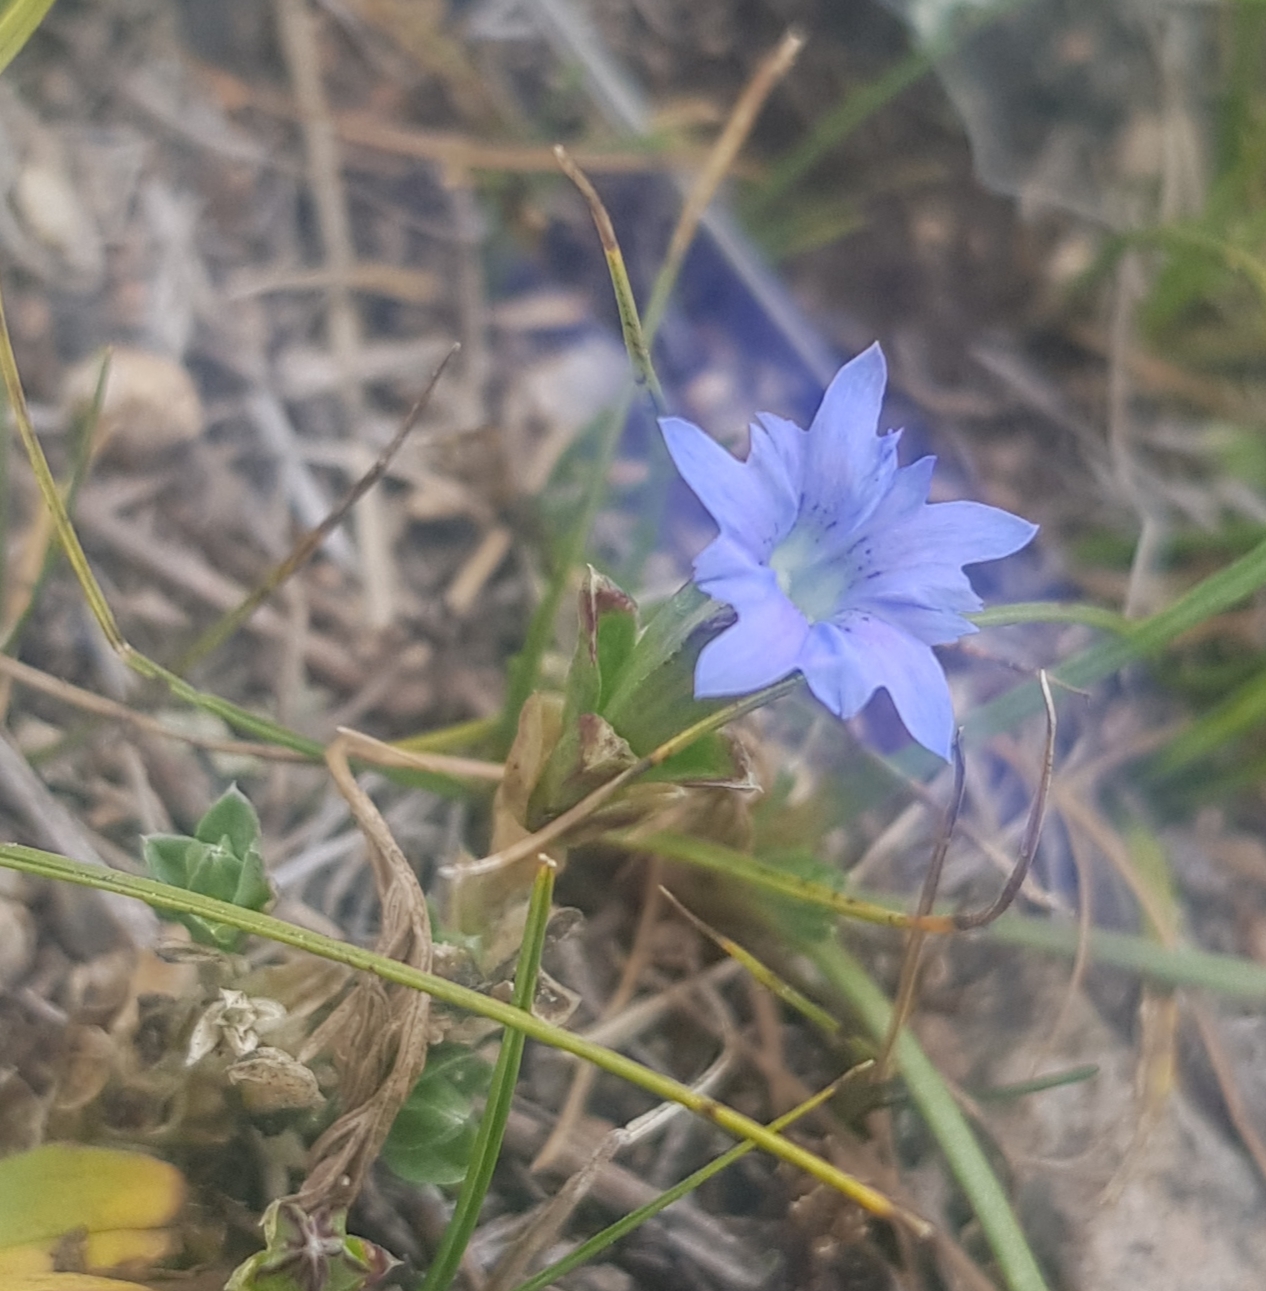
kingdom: Plantae
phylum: Tracheophyta
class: Magnoliopsida
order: Gentianales
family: Gentianaceae
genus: Gentiana
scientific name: Gentiana squarrosa
